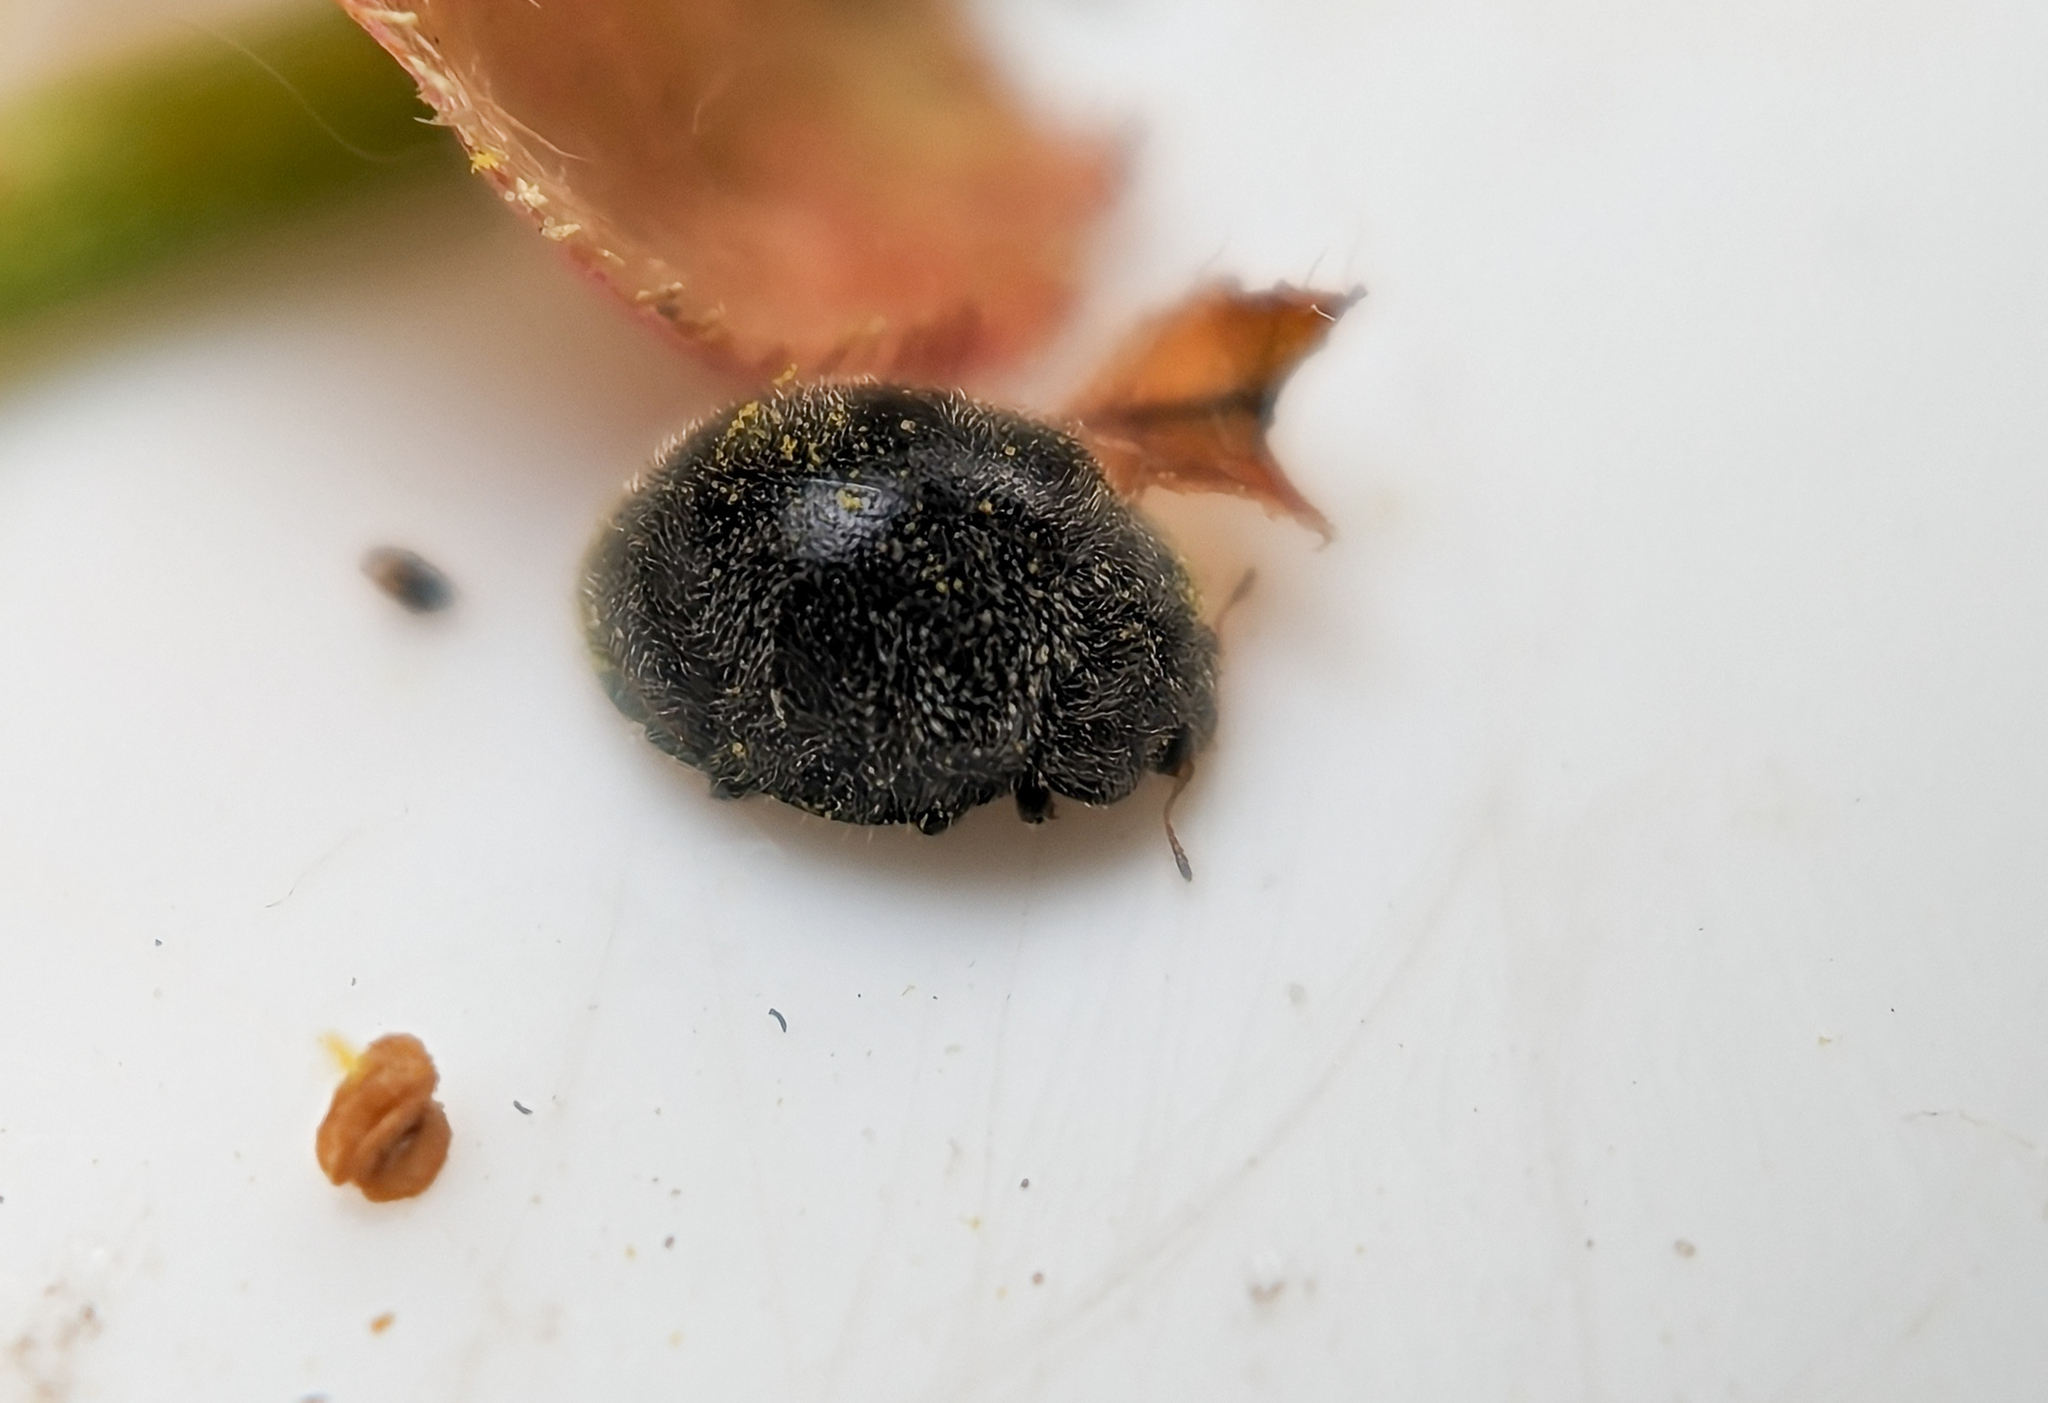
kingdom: Animalia
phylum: Arthropoda
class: Insecta
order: Coleoptera
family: Coccinellidae
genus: Rhyzobius
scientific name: Rhyzobius forestieri
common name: Ladybird beetle
